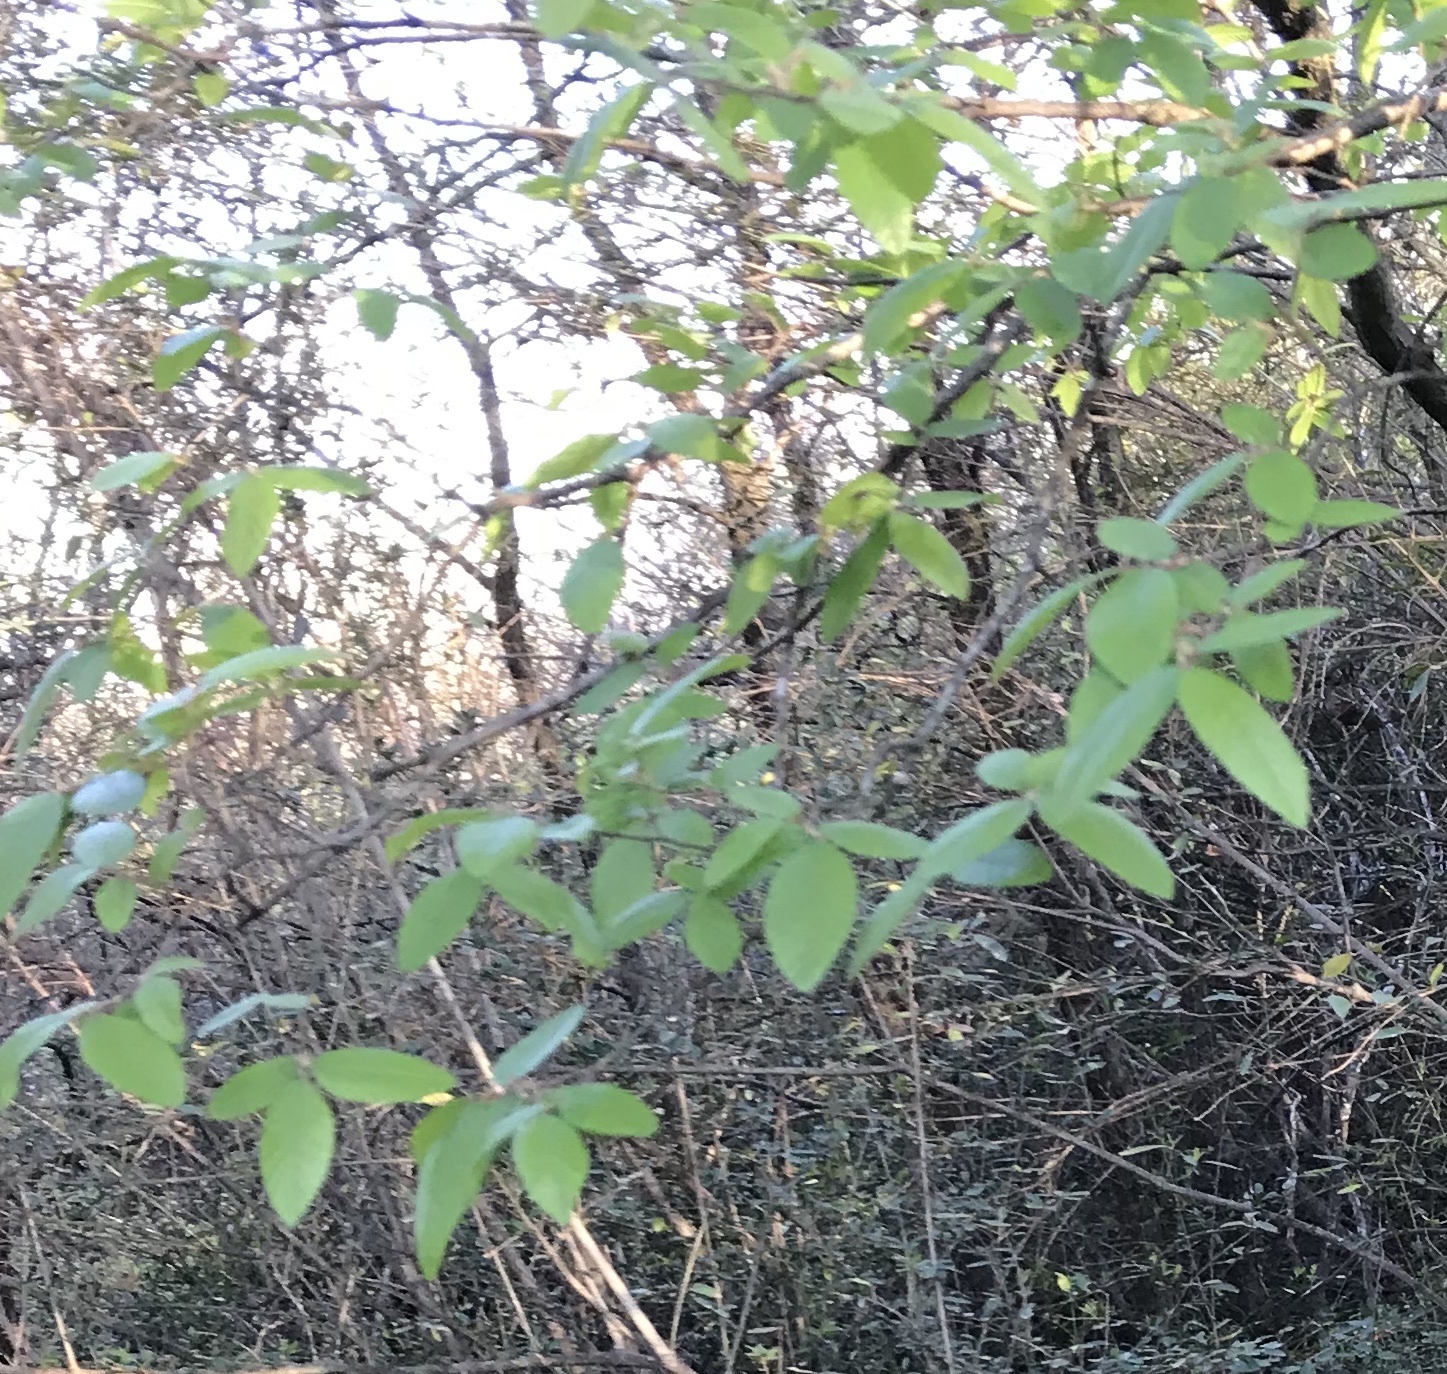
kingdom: Plantae
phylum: Tracheophyta
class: Magnoliopsida
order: Rosales
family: Ulmaceae
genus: Ulmus
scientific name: Ulmus crassifolia
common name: Basket elm
